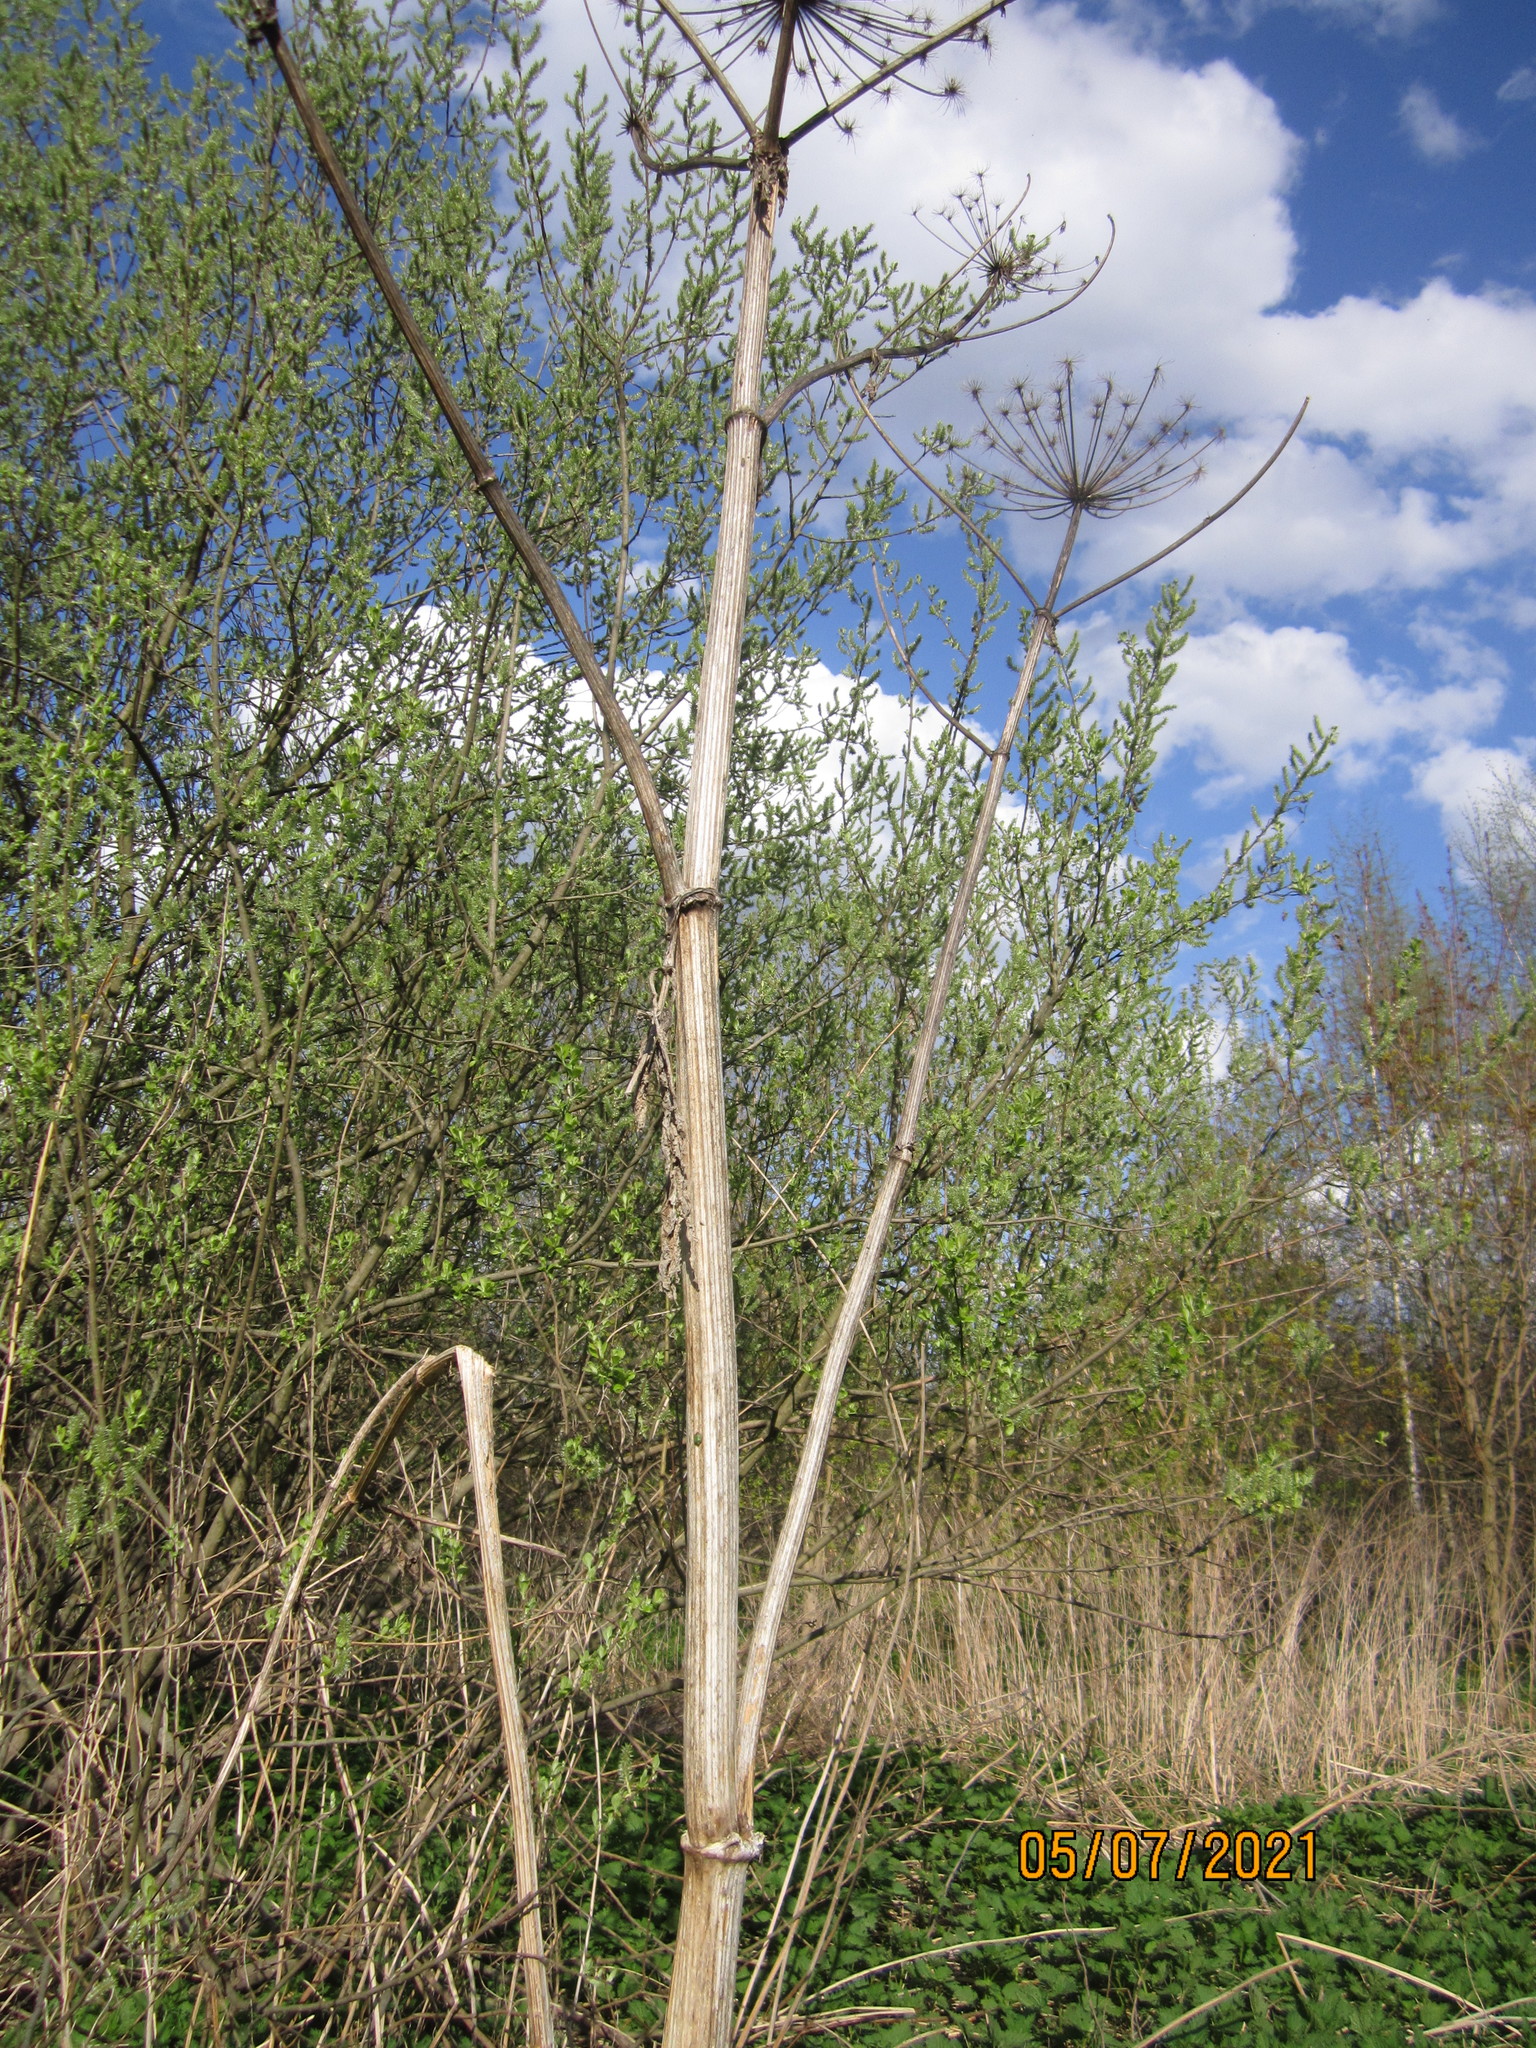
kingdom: Plantae
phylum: Tracheophyta
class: Magnoliopsida
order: Apiales
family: Apiaceae
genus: Heracleum
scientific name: Heracleum sosnowskyi
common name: Sosnowsky's hogweed
